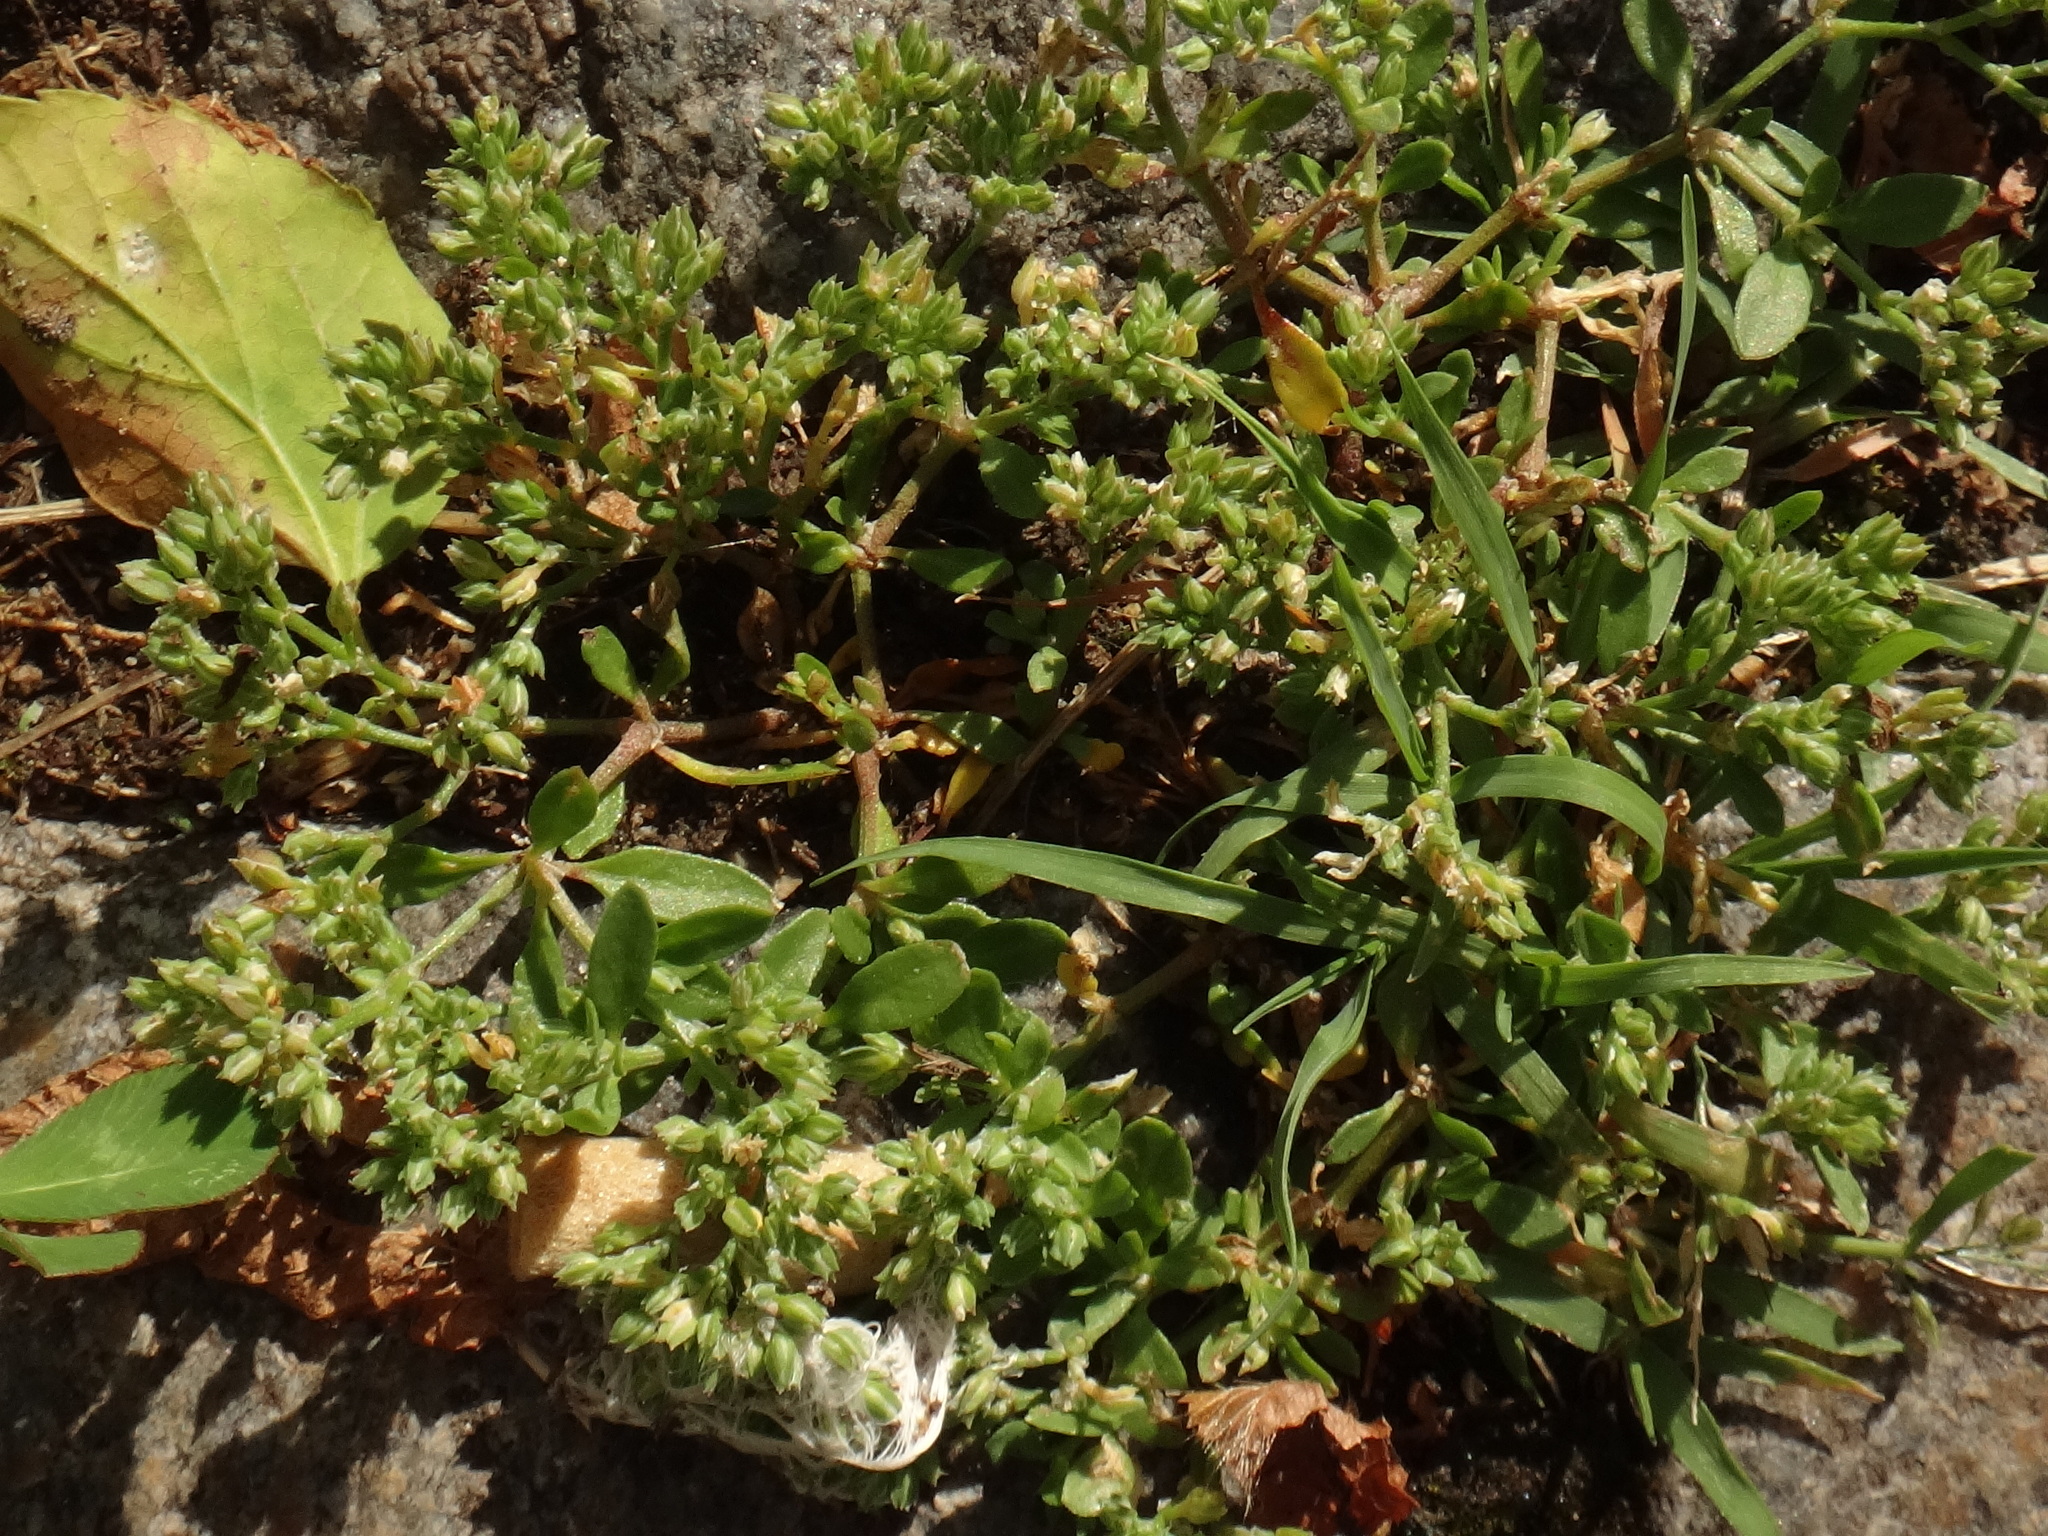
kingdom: Plantae
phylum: Tracheophyta
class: Magnoliopsida
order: Caryophyllales
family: Caryophyllaceae
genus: Polycarpon
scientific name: Polycarpon tetraphyllum
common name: Four-leaved all-seed
